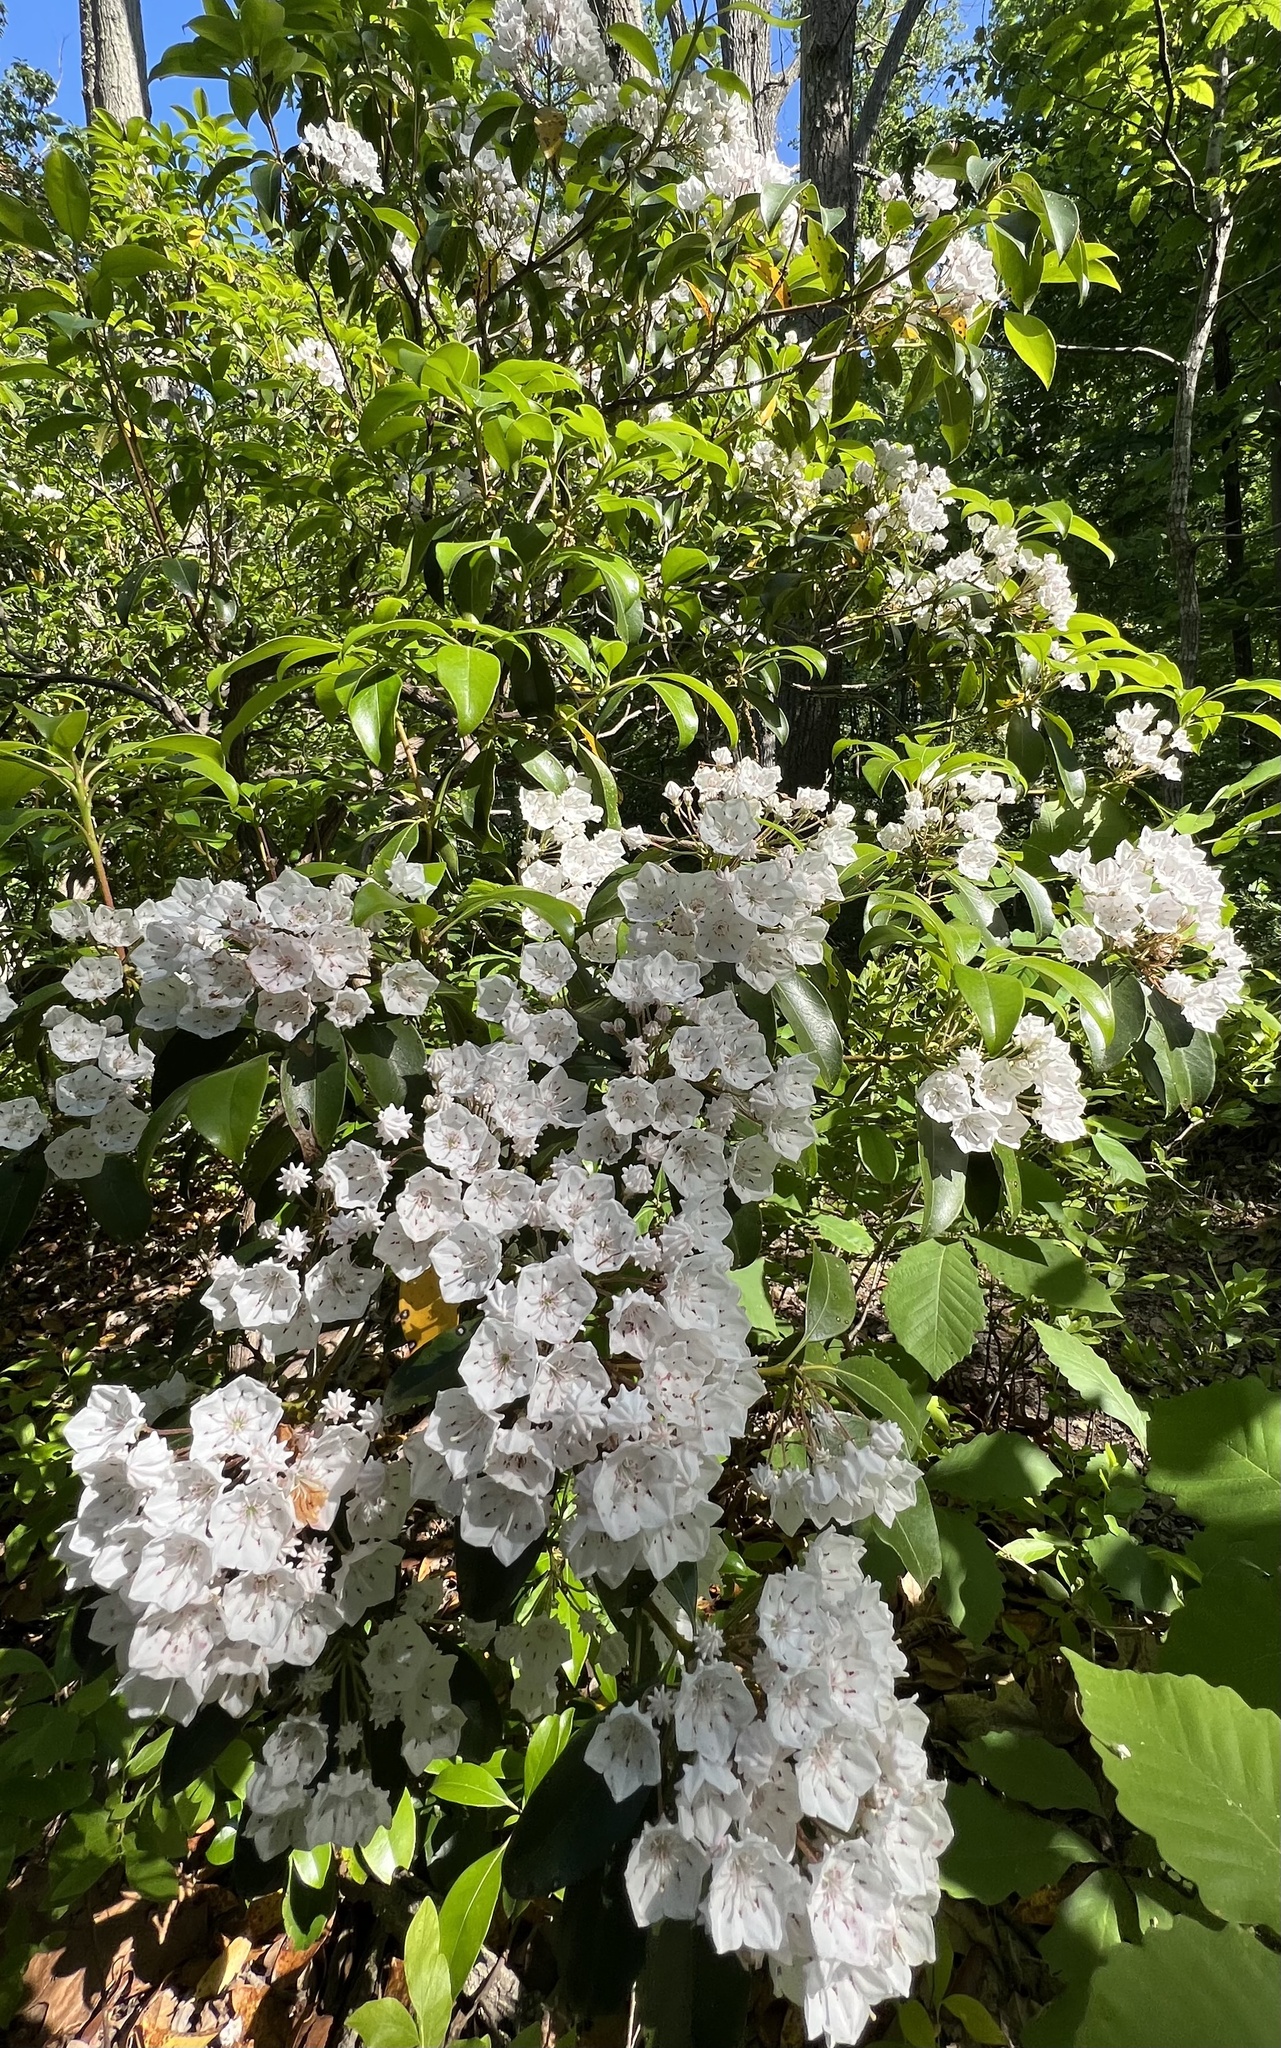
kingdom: Plantae
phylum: Tracheophyta
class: Magnoliopsida
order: Ericales
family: Ericaceae
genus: Kalmia
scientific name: Kalmia latifolia
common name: Mountain-laurel
